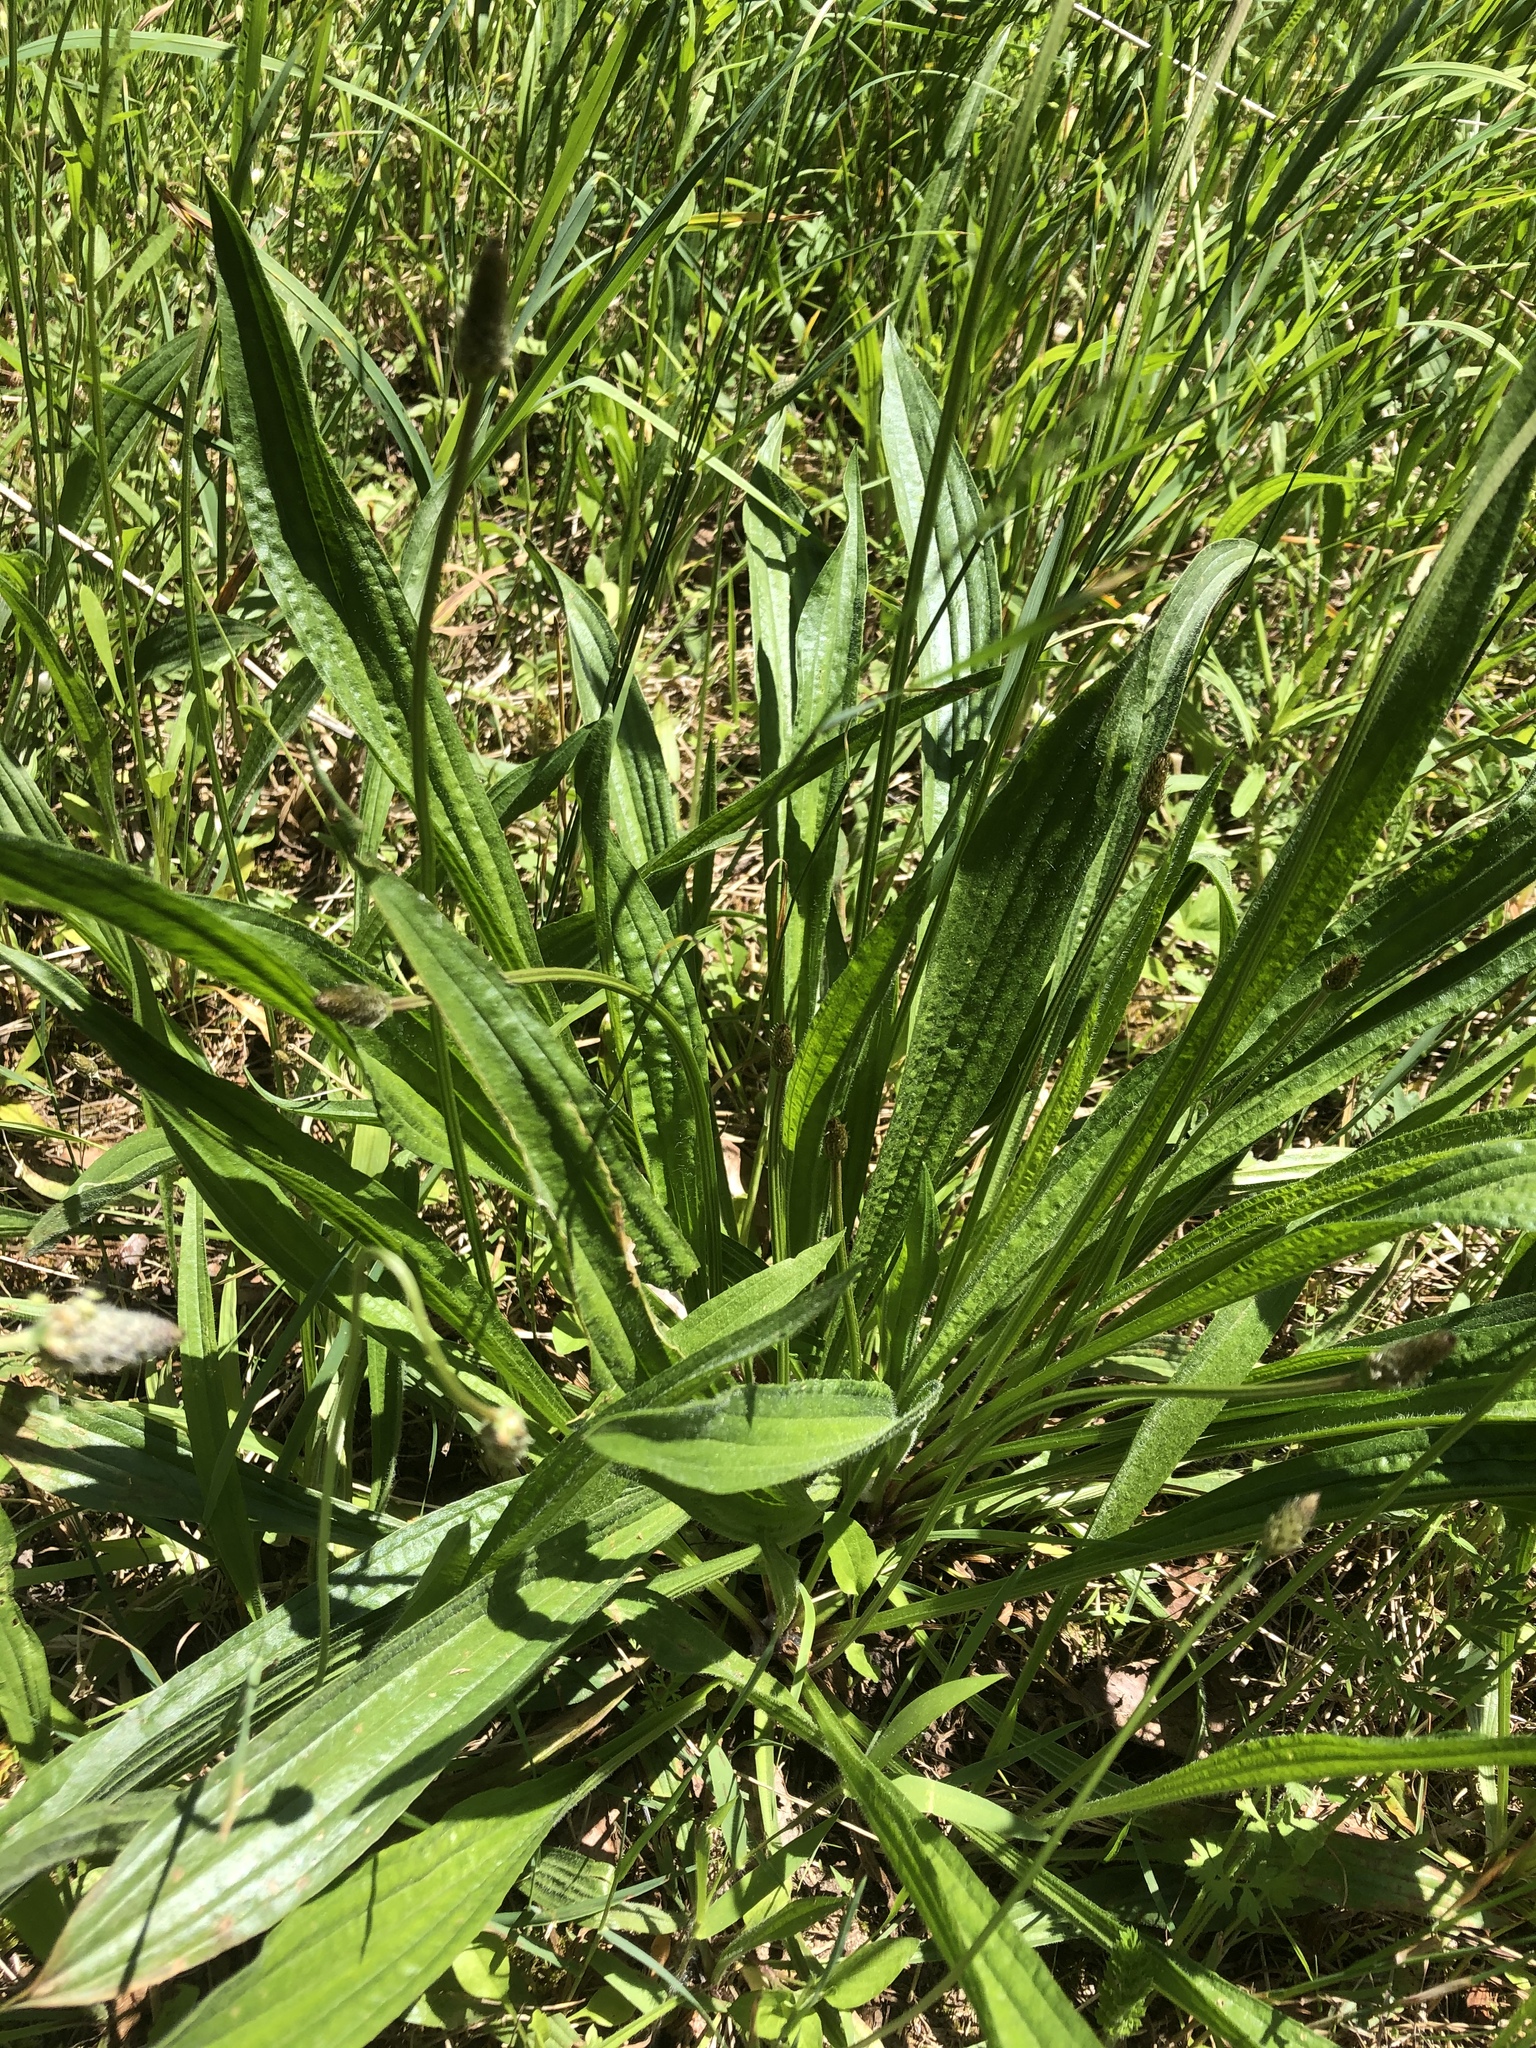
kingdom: Plantae
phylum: Tracheophyta
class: Magnoliopsida
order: Lamiales
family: Plantaginaceae
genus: Plantago
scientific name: Plantago lanceolata
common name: Ribwort plantain
